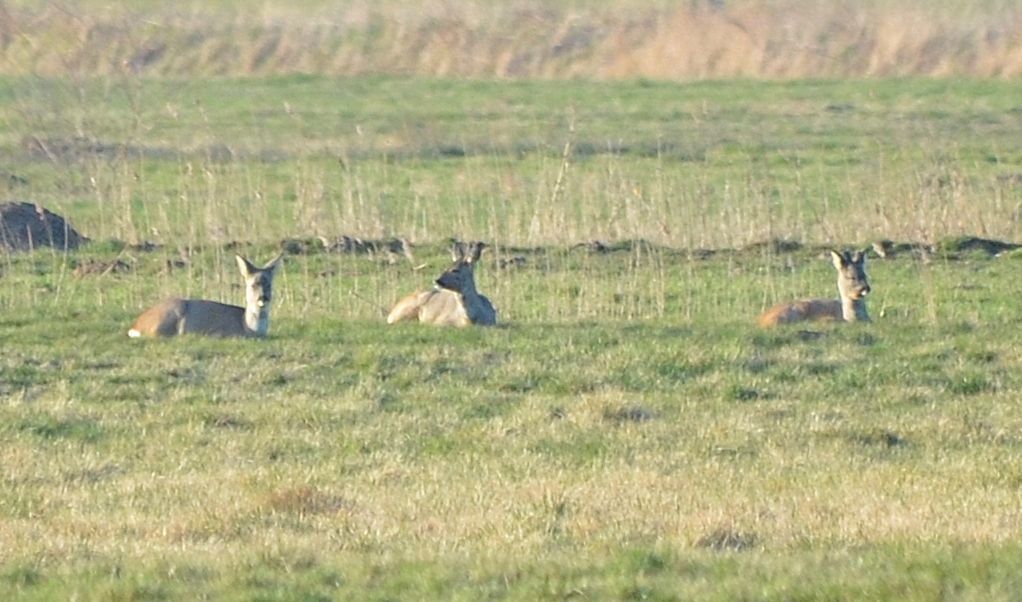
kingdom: Animalia
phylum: Chordata
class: Mammalia
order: Artiodactyla
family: Cervidae
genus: Capreolus
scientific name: Capreolus capreolus
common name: Western roe deer
